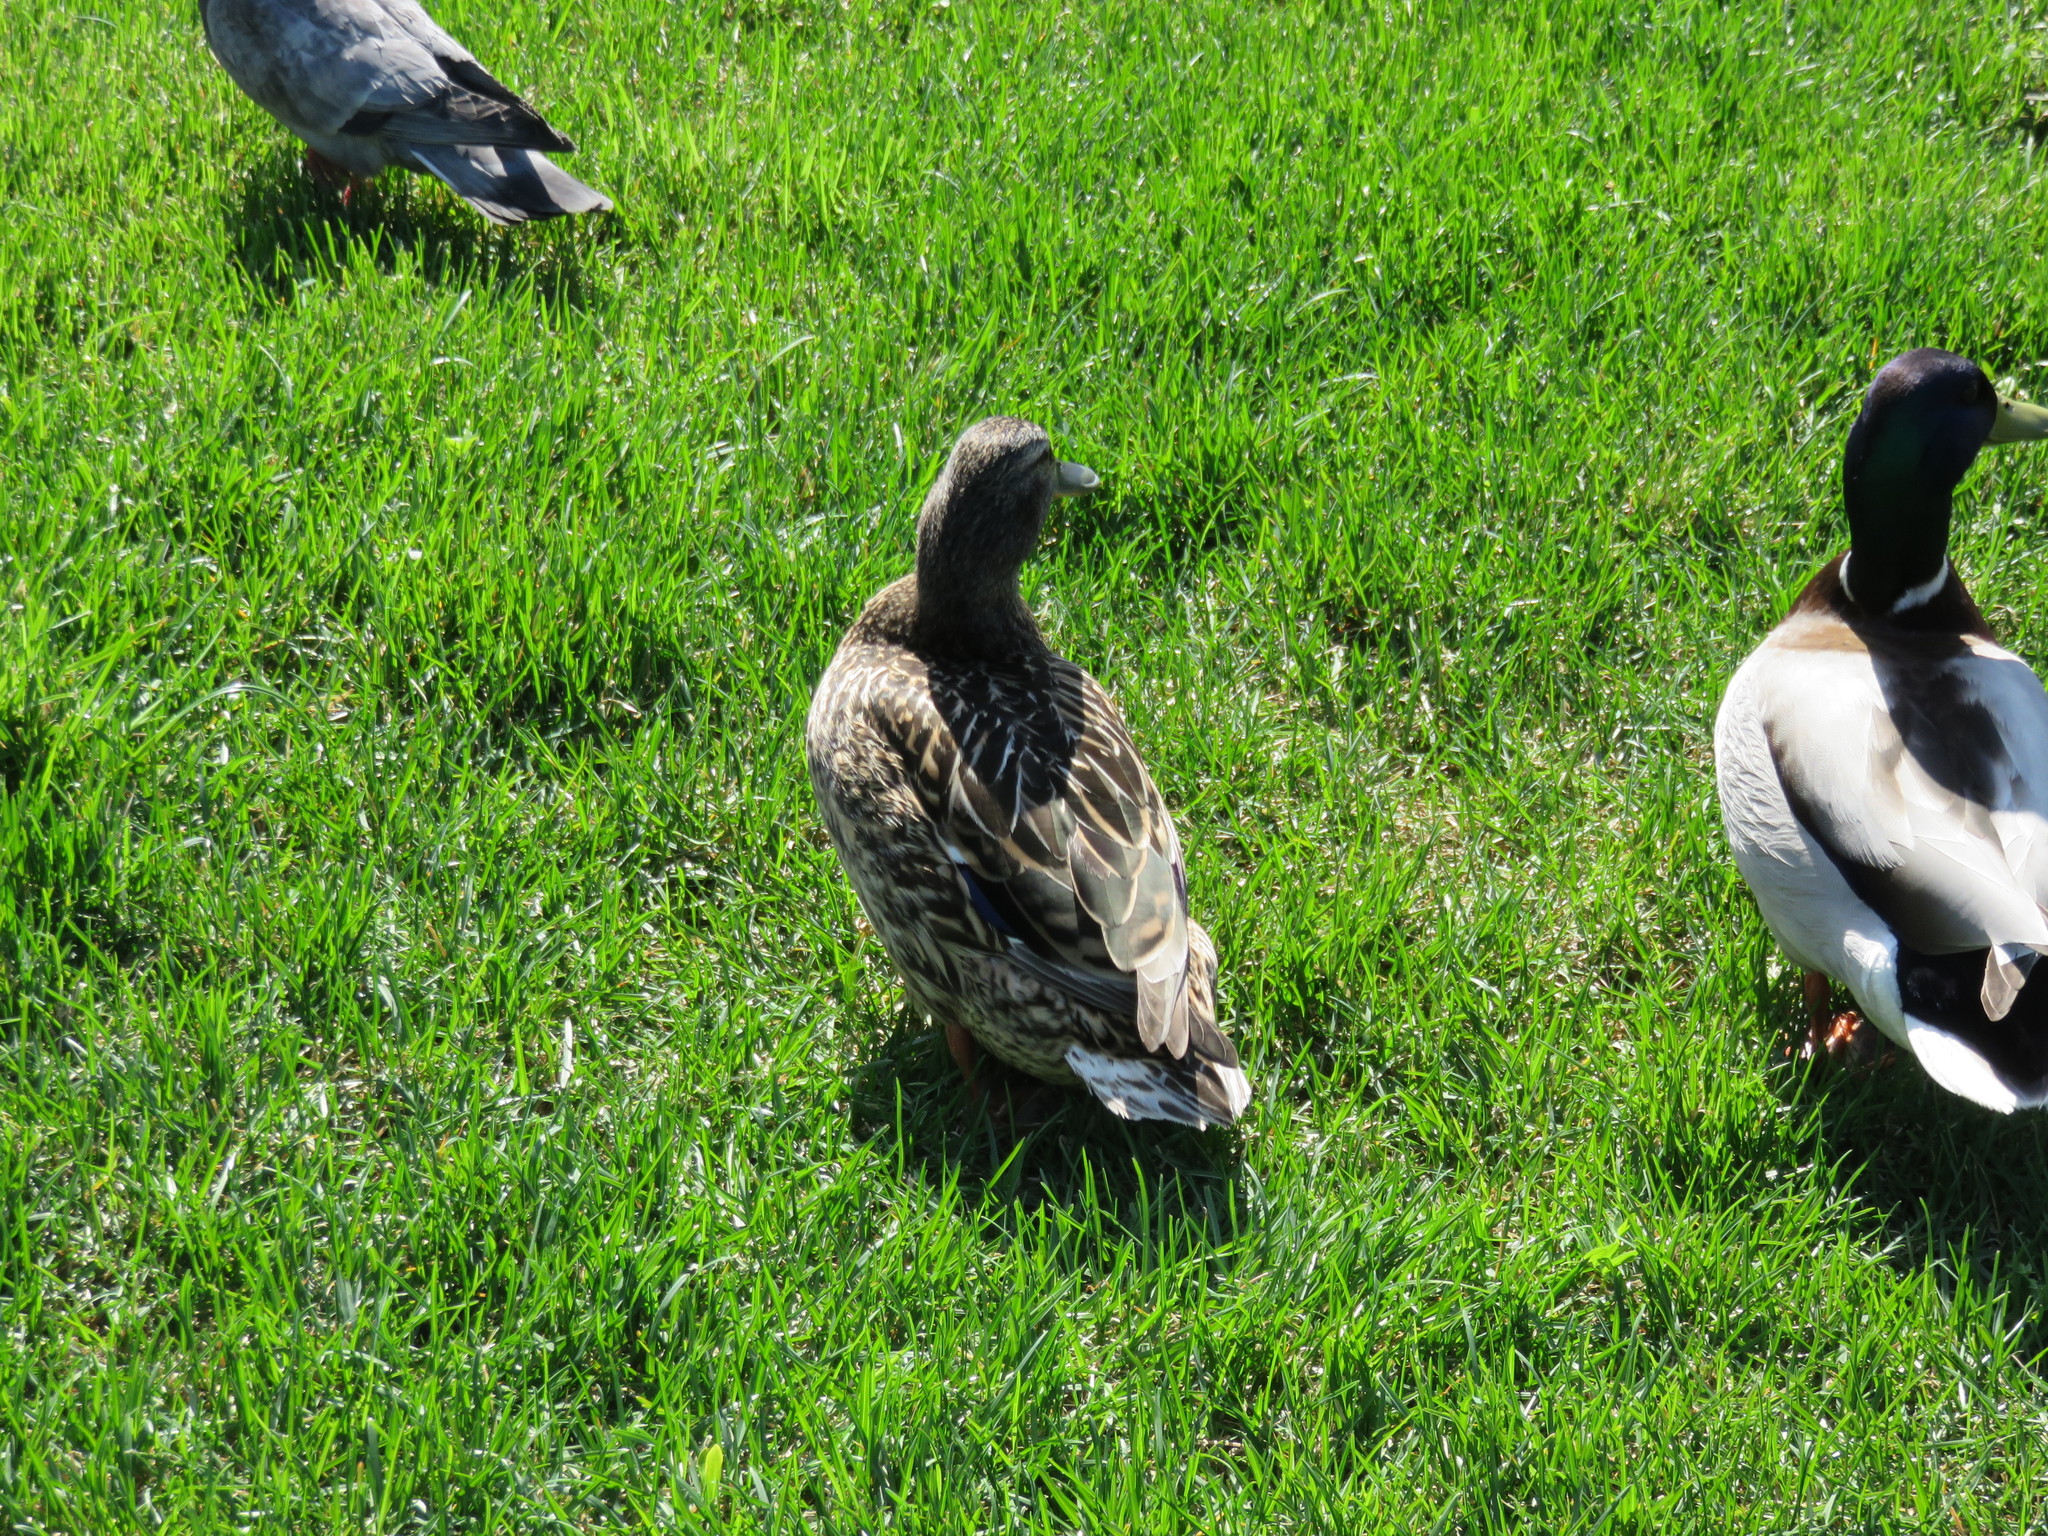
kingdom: Animalia
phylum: Chordata
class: Aves
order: Anseriformes
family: Anatidae
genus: Anas
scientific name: Anas platyrhynchos
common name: Mallard
